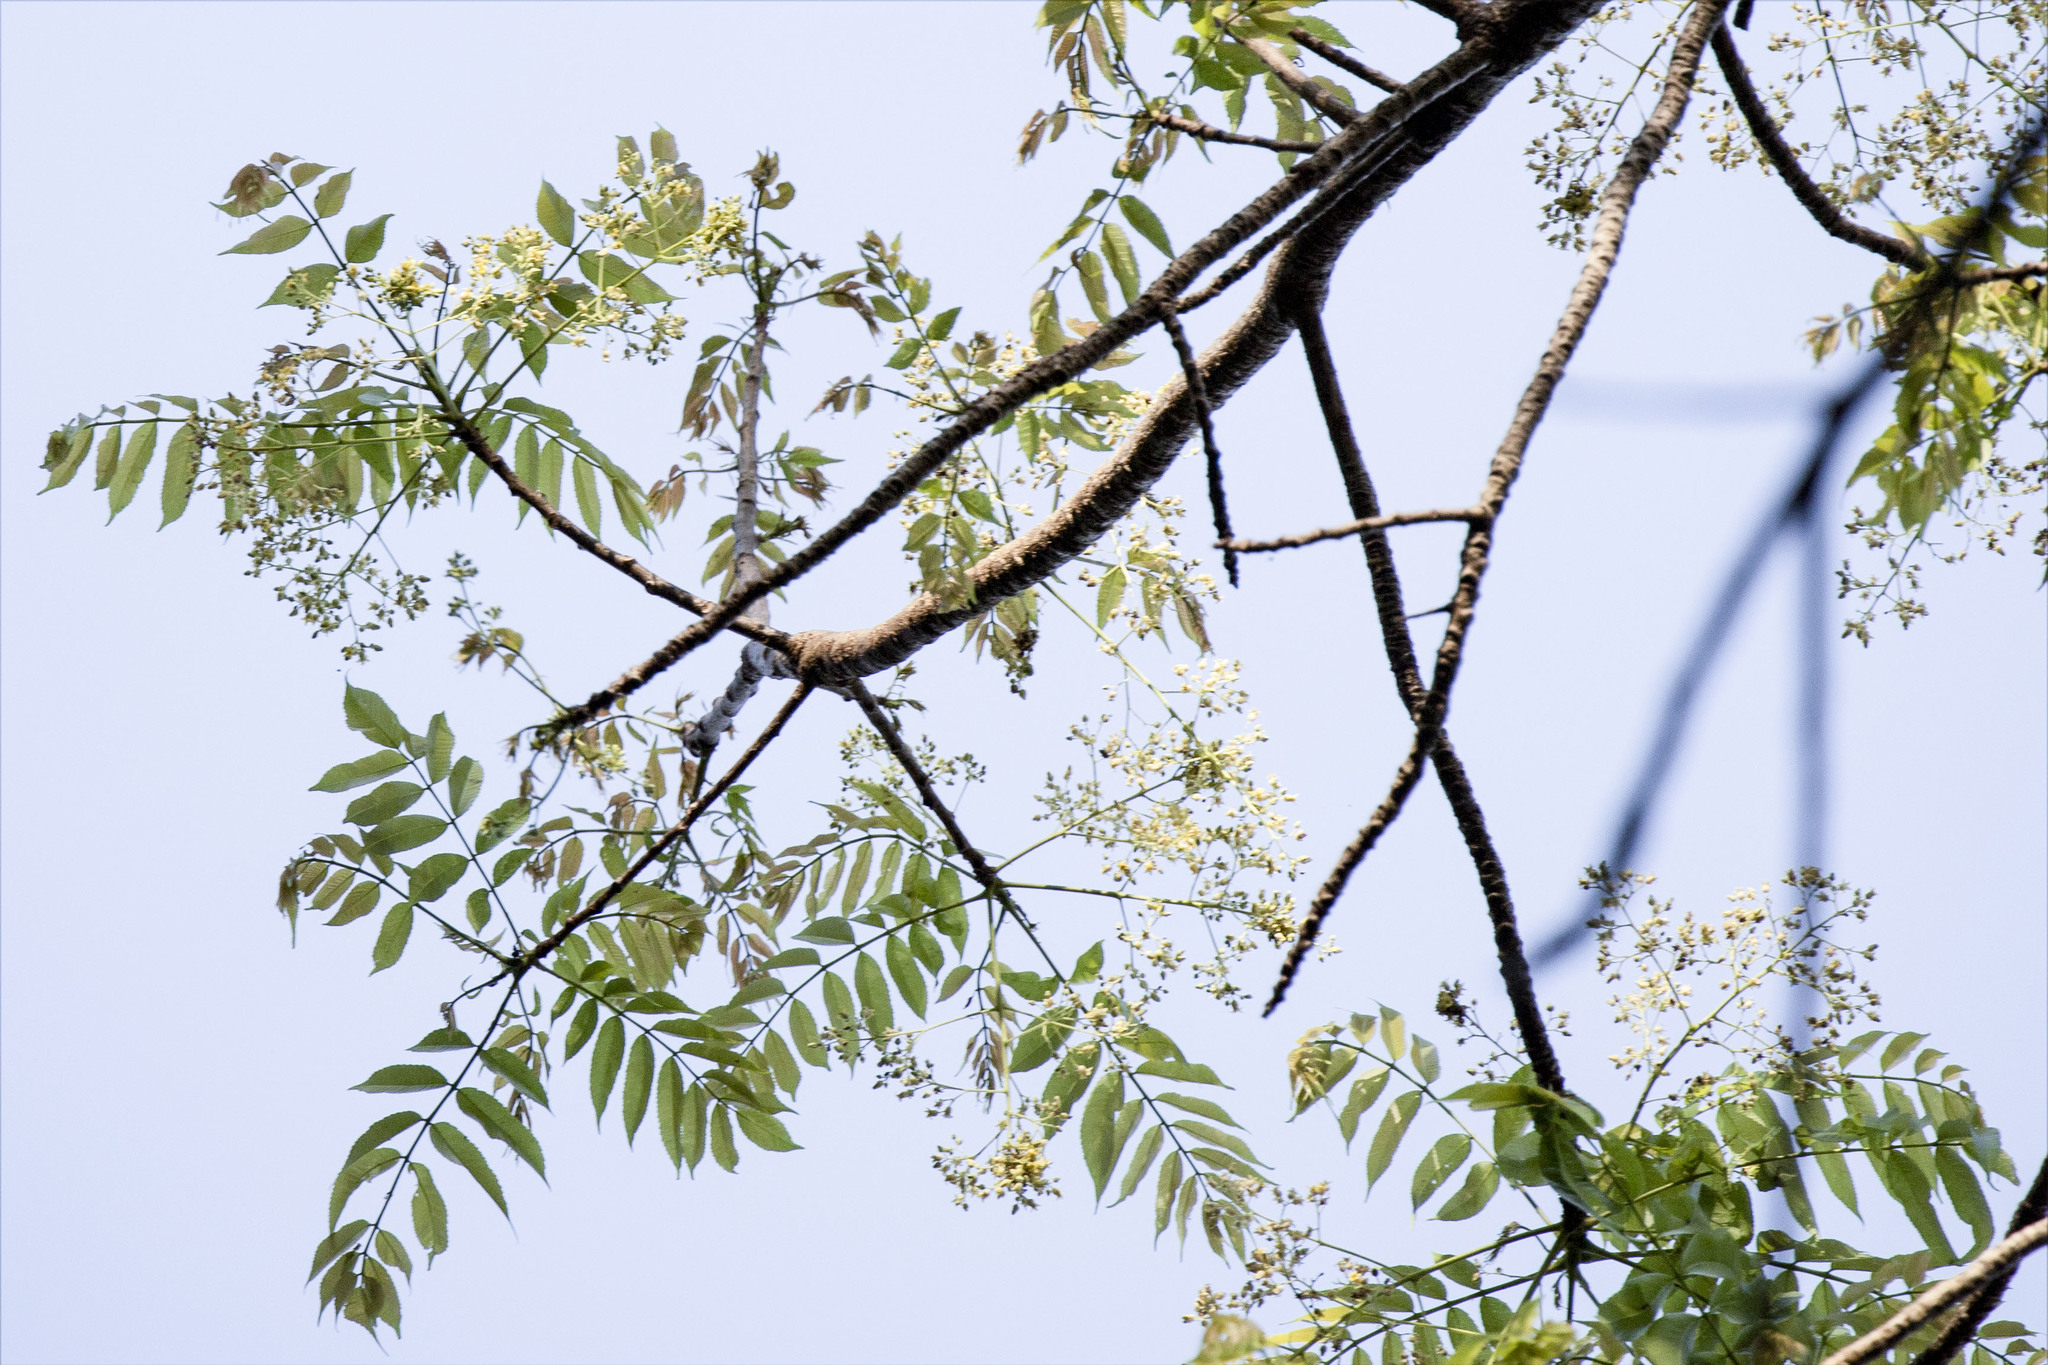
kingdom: Plantae
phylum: Tracheophyta
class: Magnoliopsida
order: Sapindales
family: Meliaceae
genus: Azadirachta
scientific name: Azadirachta indica
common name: Neem
